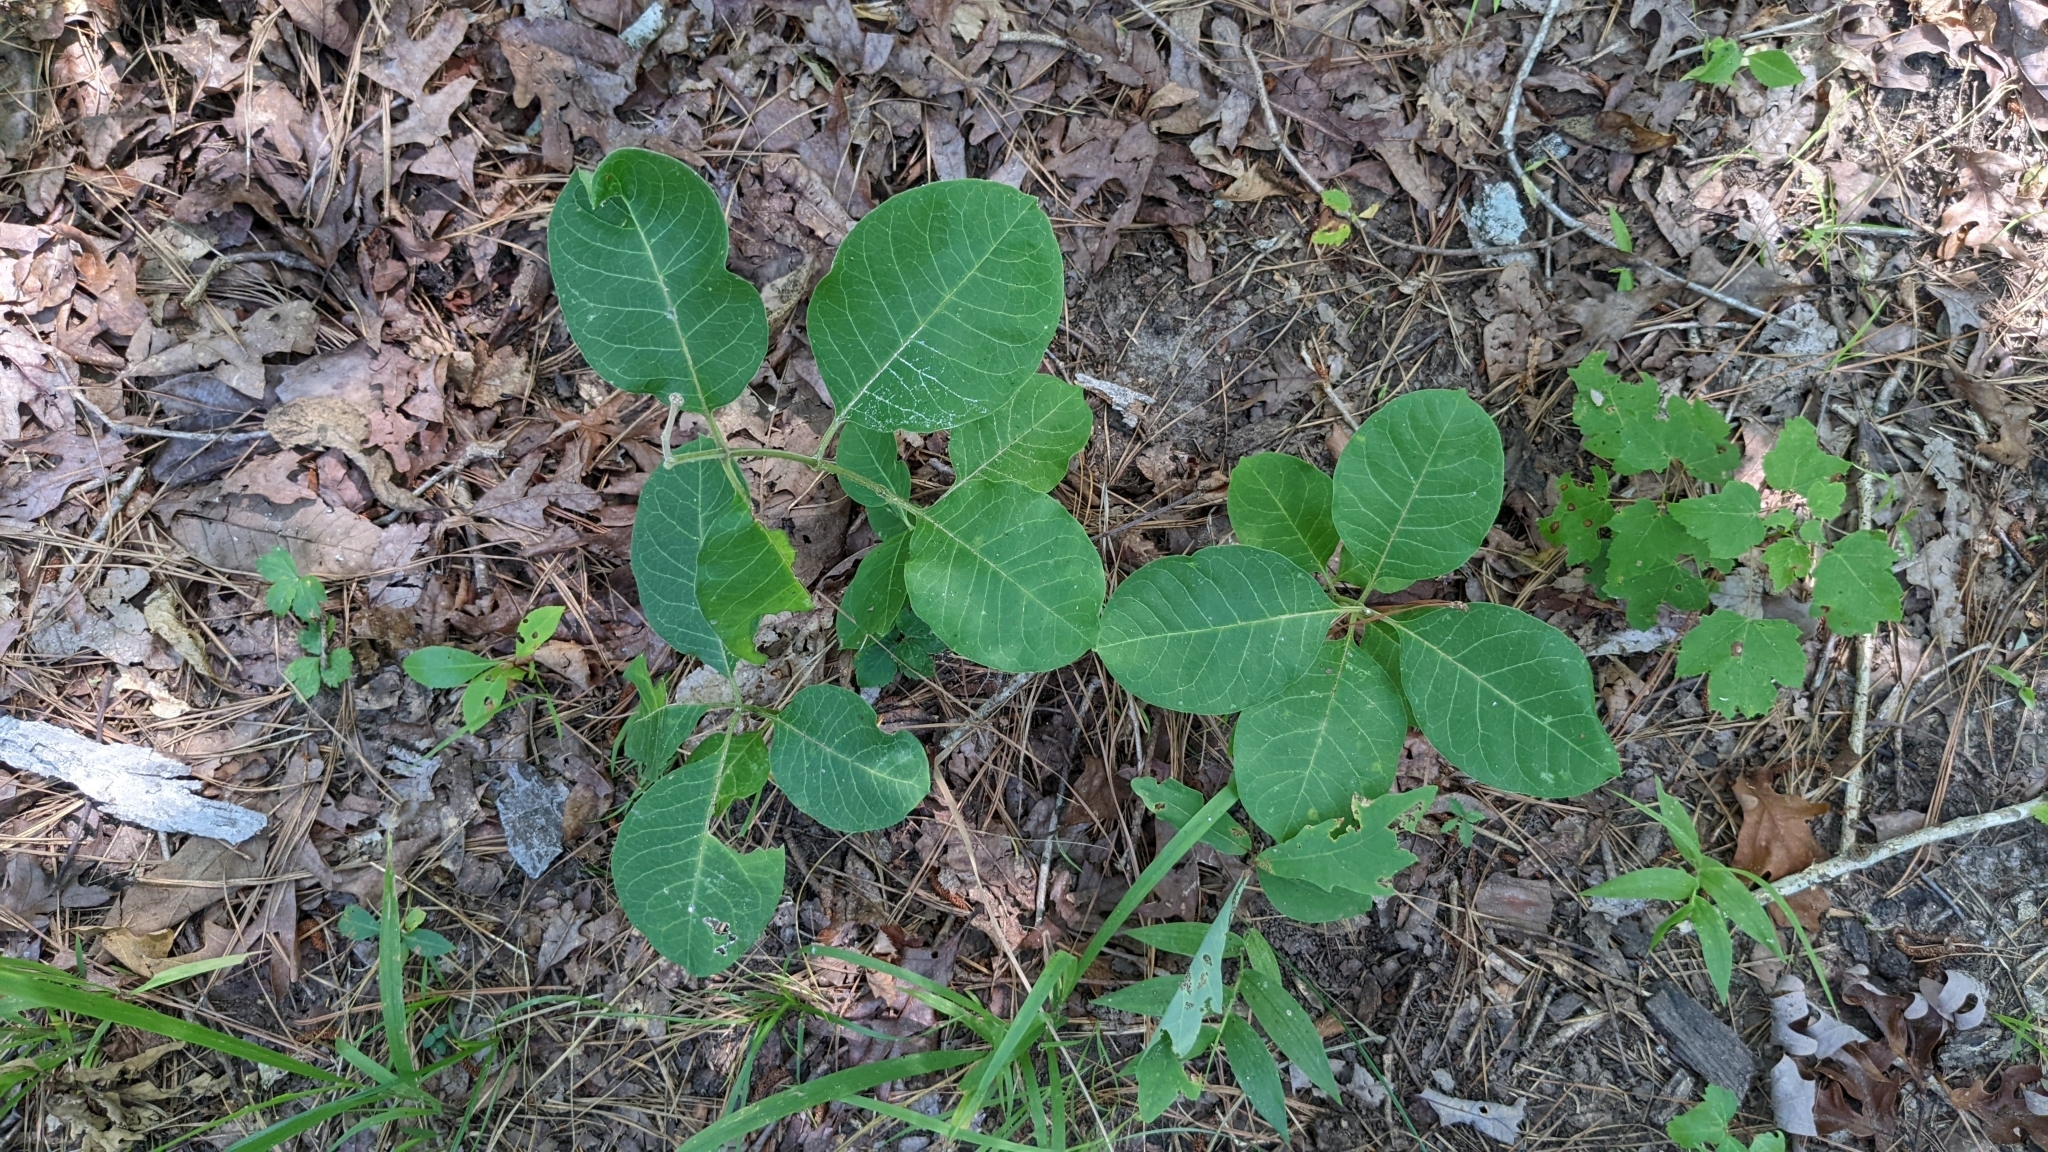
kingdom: Plantae
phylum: Tracheophyta
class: Magnoliopsida
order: Gentianales
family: Apocynaceae
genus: Asclepias
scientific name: Asclepias variegata
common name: Variegated milkweed
